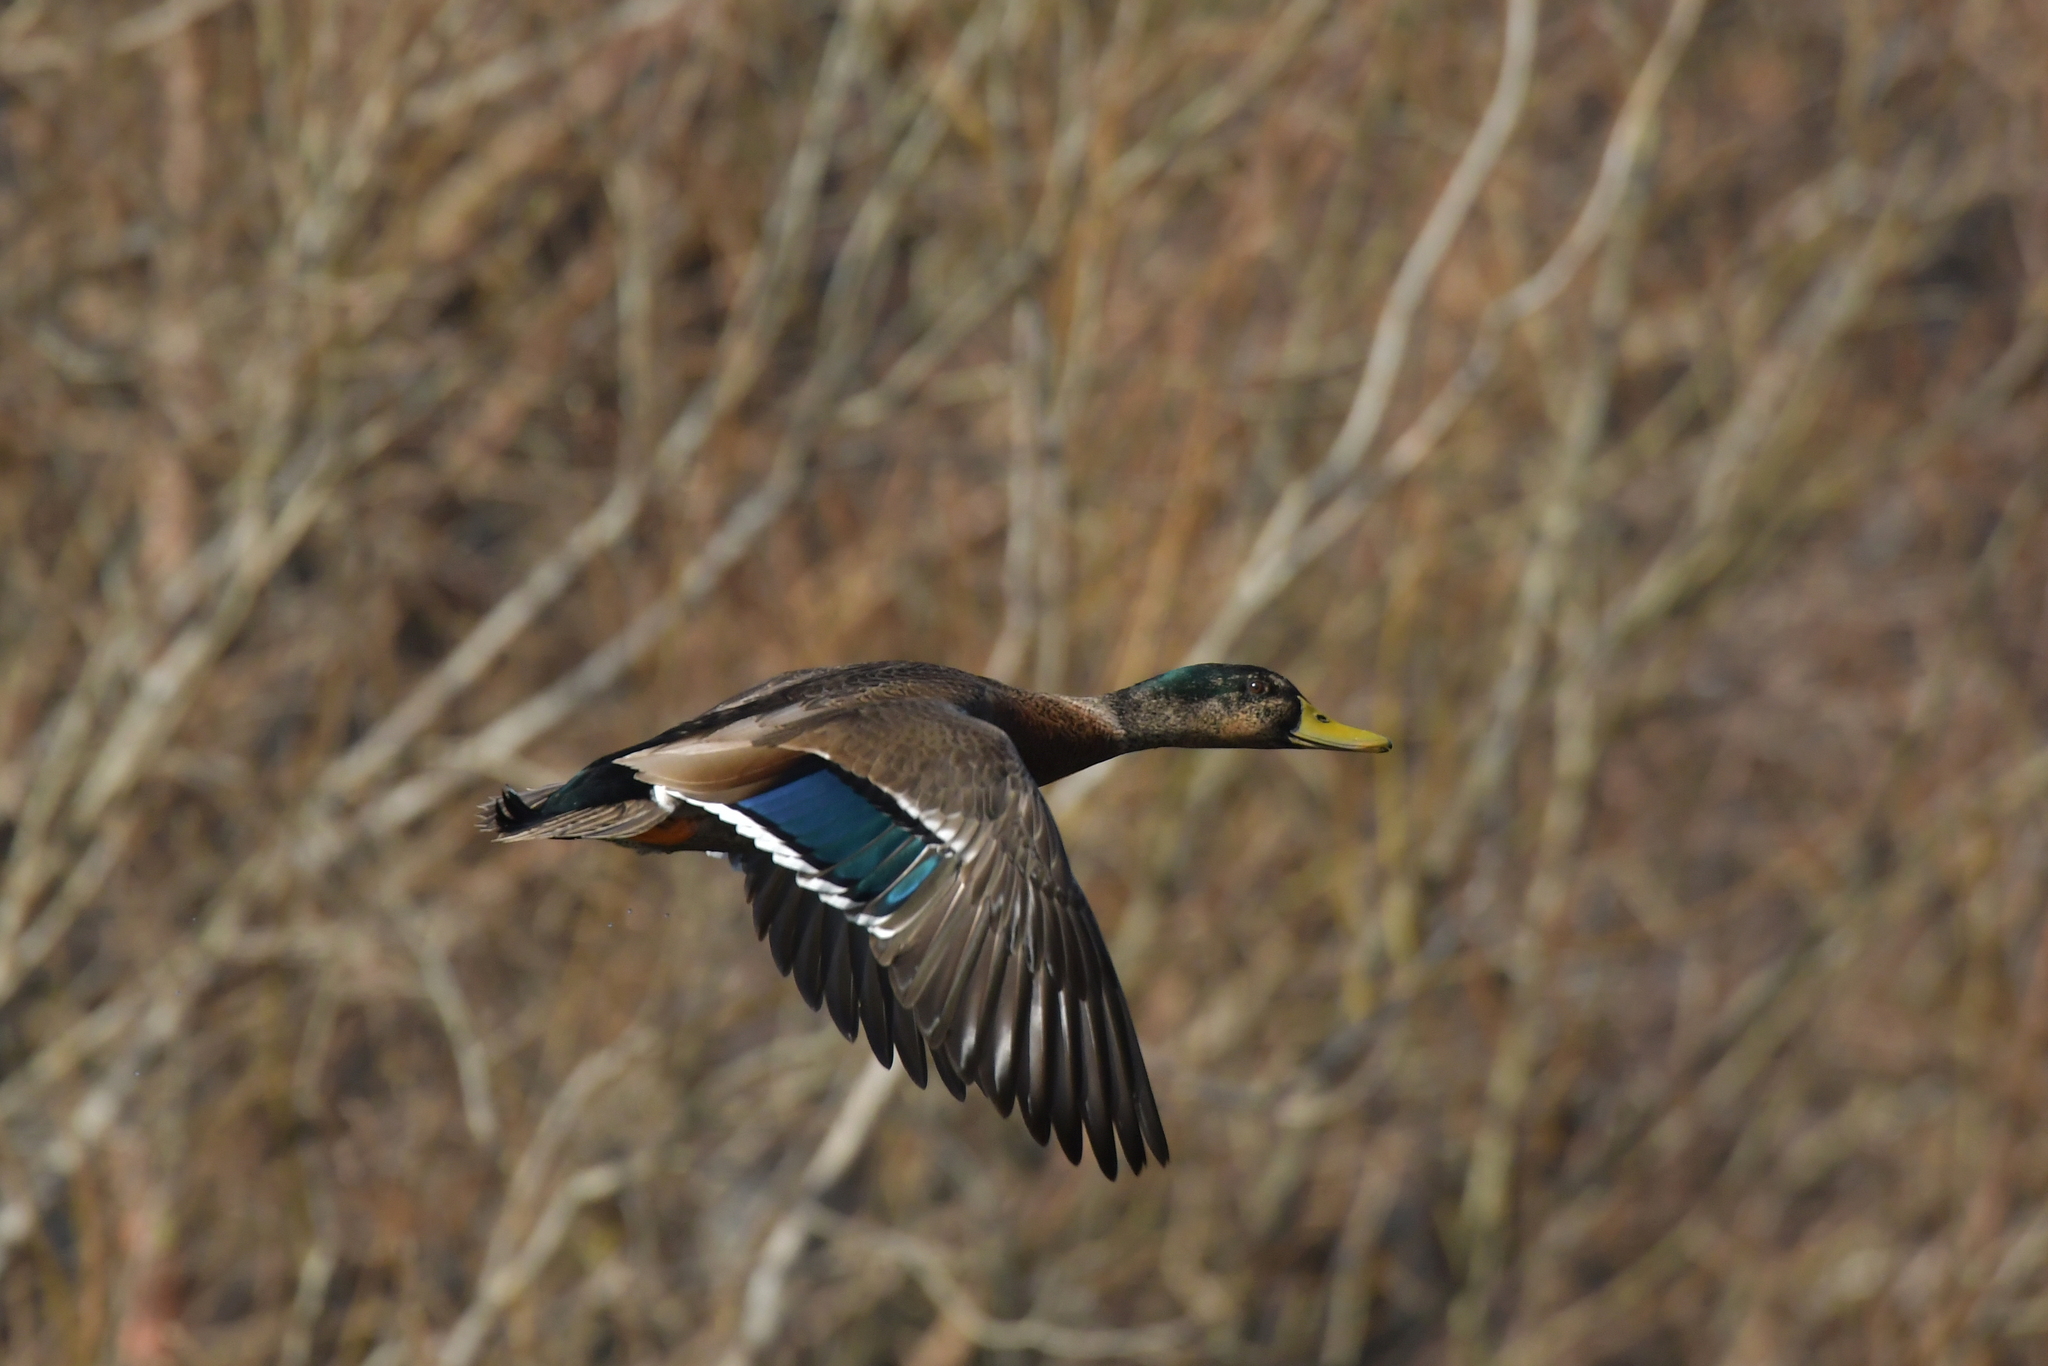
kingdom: Animalia
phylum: Chordata
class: Aves
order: Anseriformes
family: Anatidae
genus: Anas
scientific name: Anas
